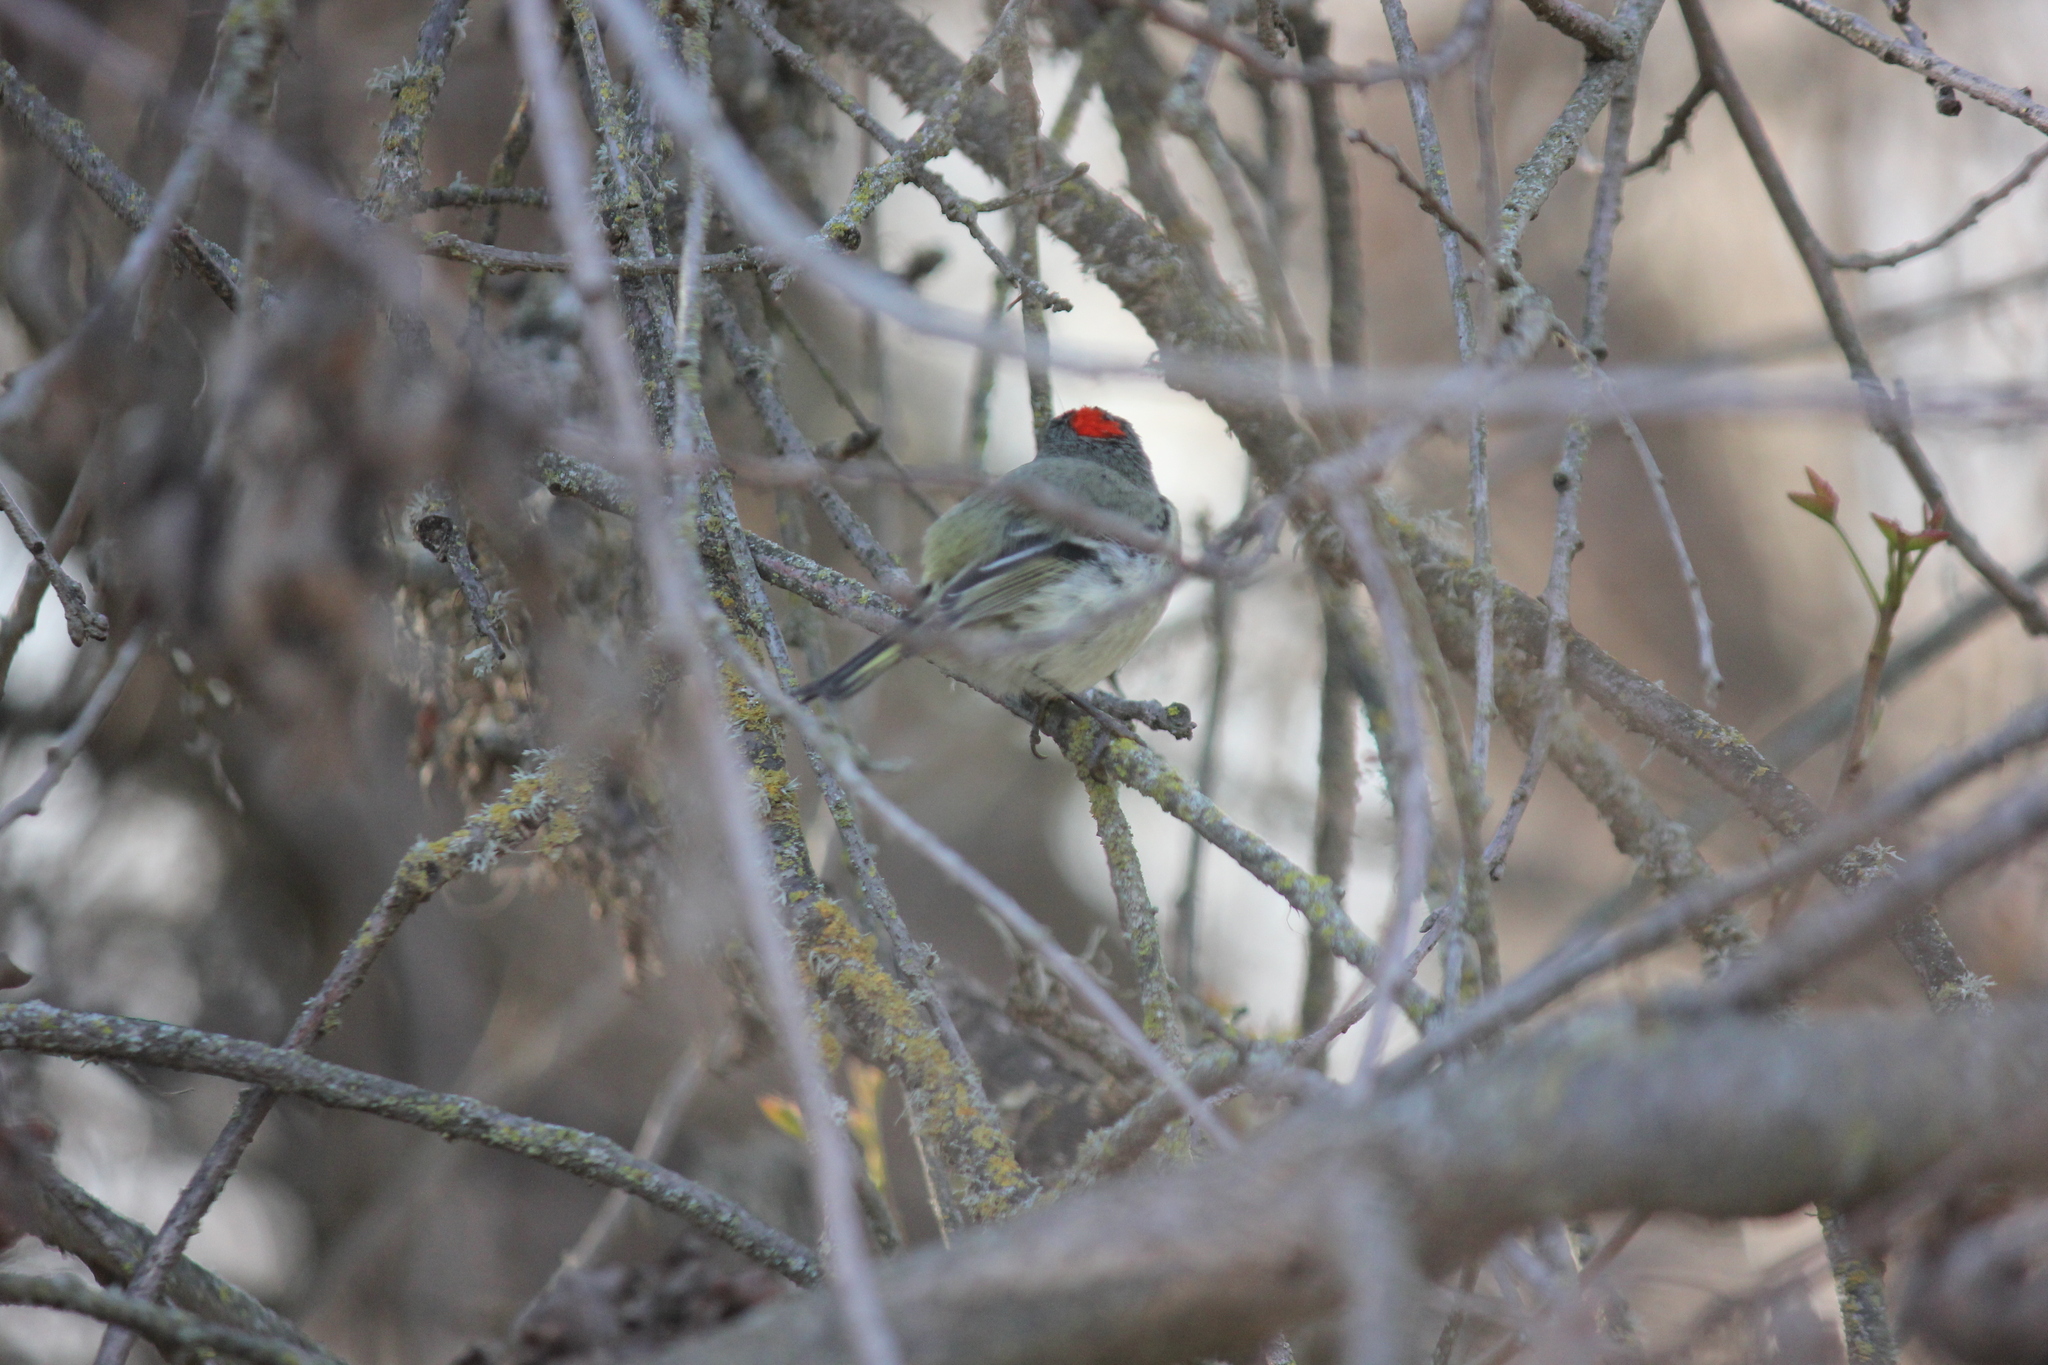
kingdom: Animalia
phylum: Chordata
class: Aves
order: Passeriformes
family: Regulidae
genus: Regulus
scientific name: Regulus calendula
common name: Ruby-crowned kinglet
